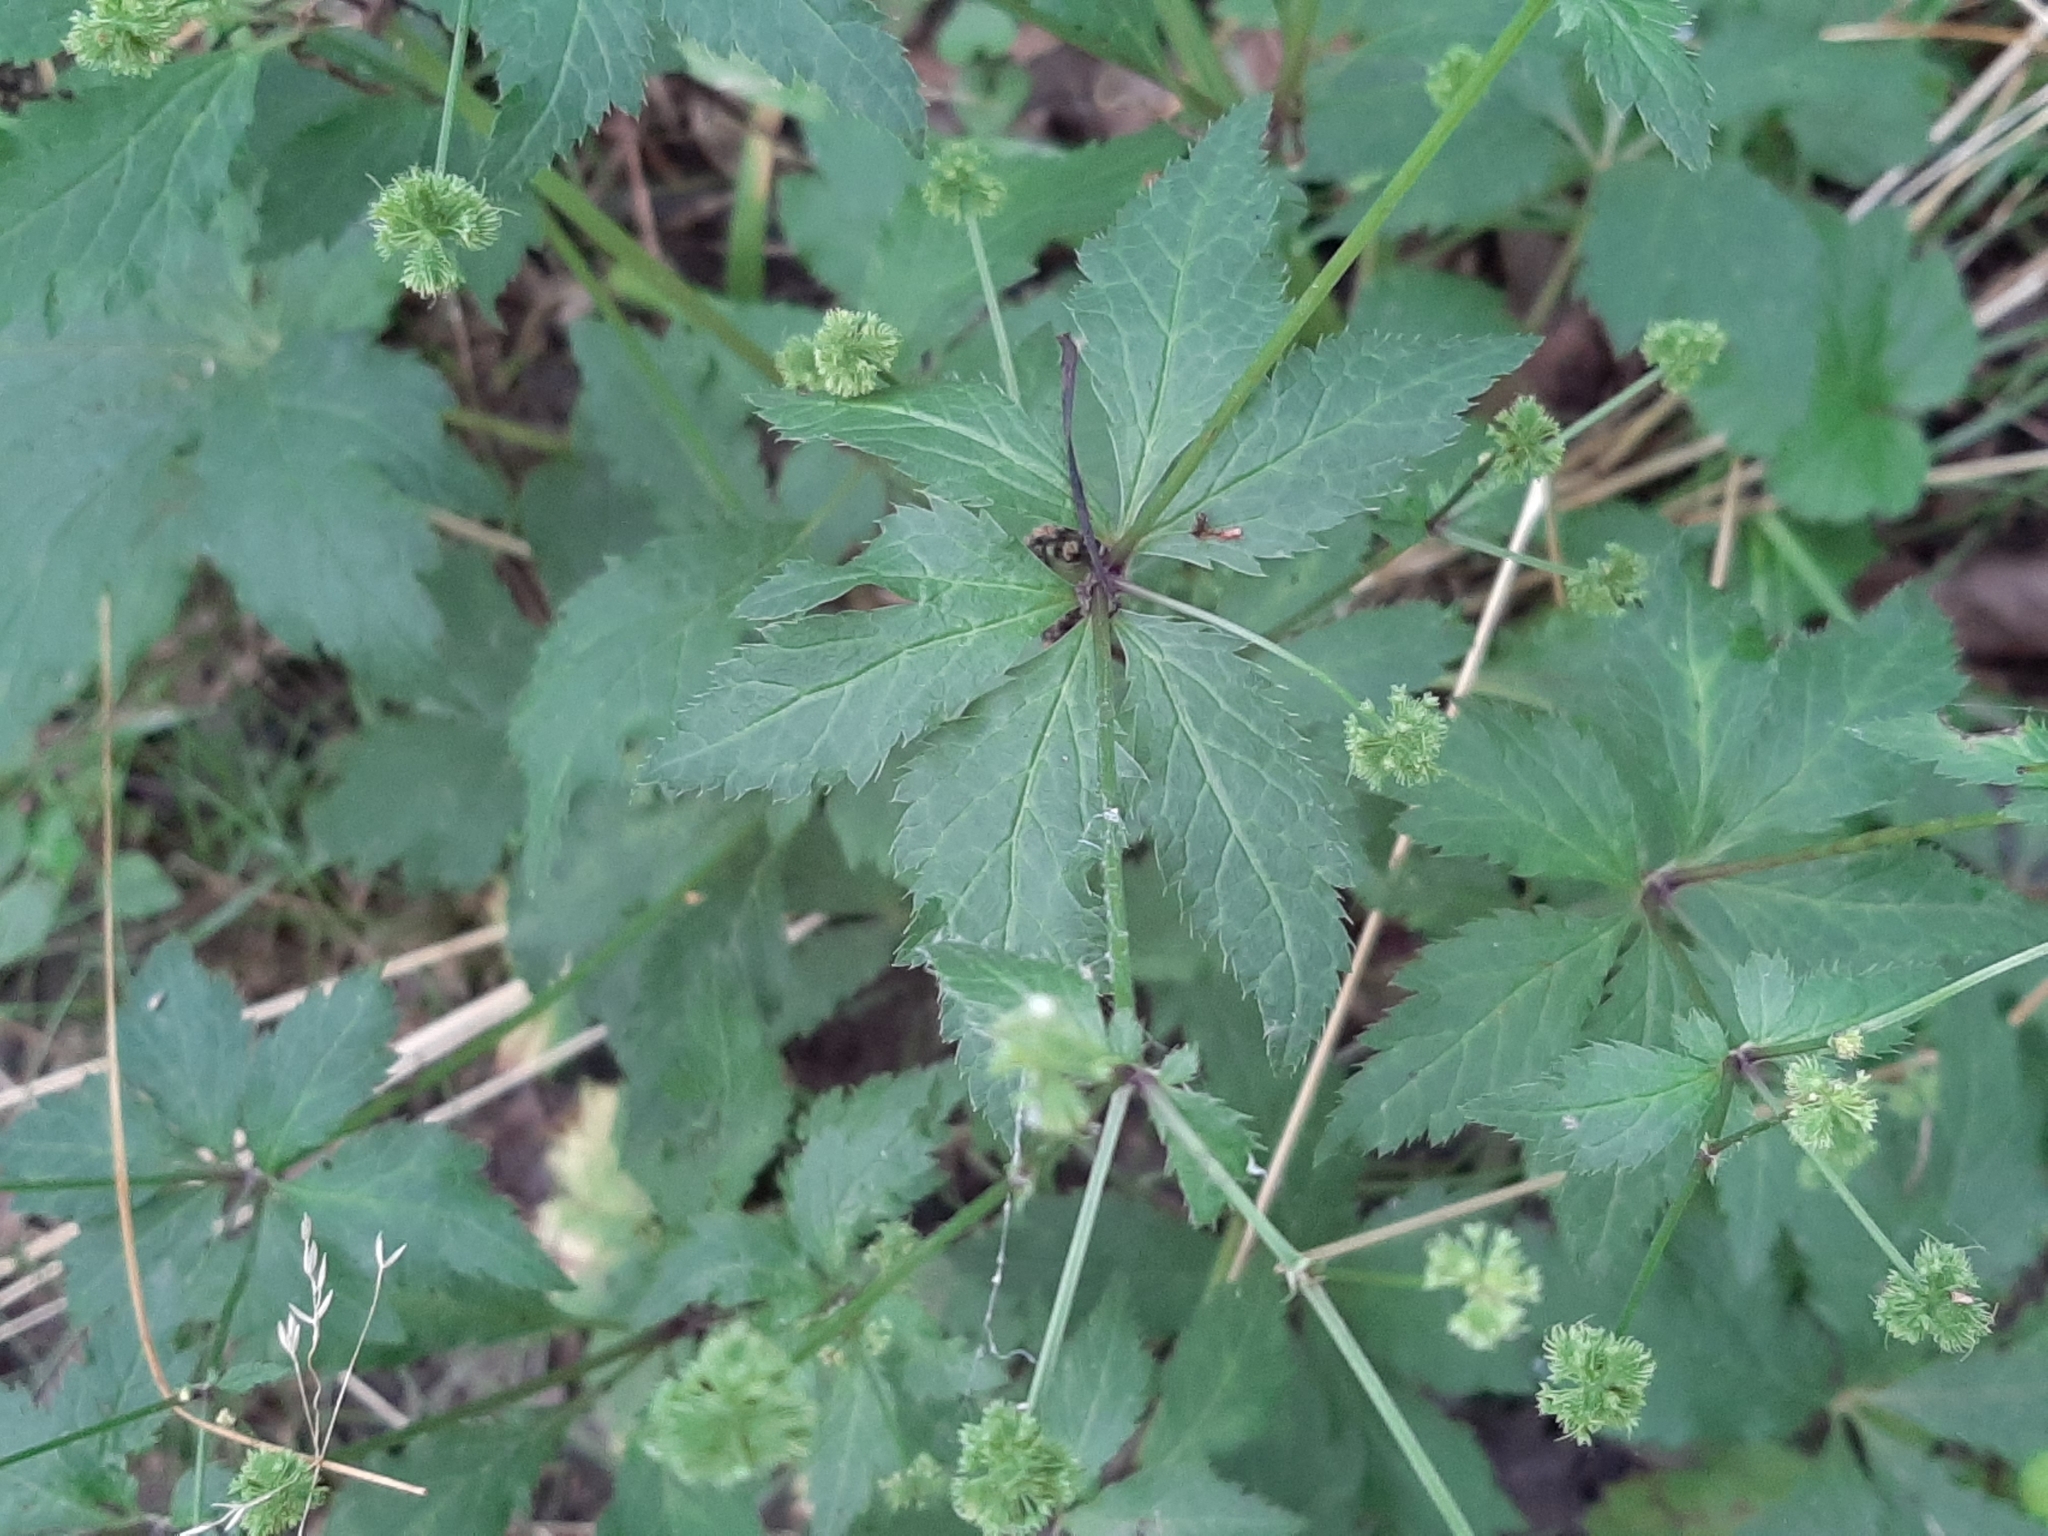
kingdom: Plantae
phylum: Tracheophyta
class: Magnoliopsida
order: Apiales
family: Apiaceae
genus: Sanicula
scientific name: Sanicula odorata
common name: Cluster sanicle
